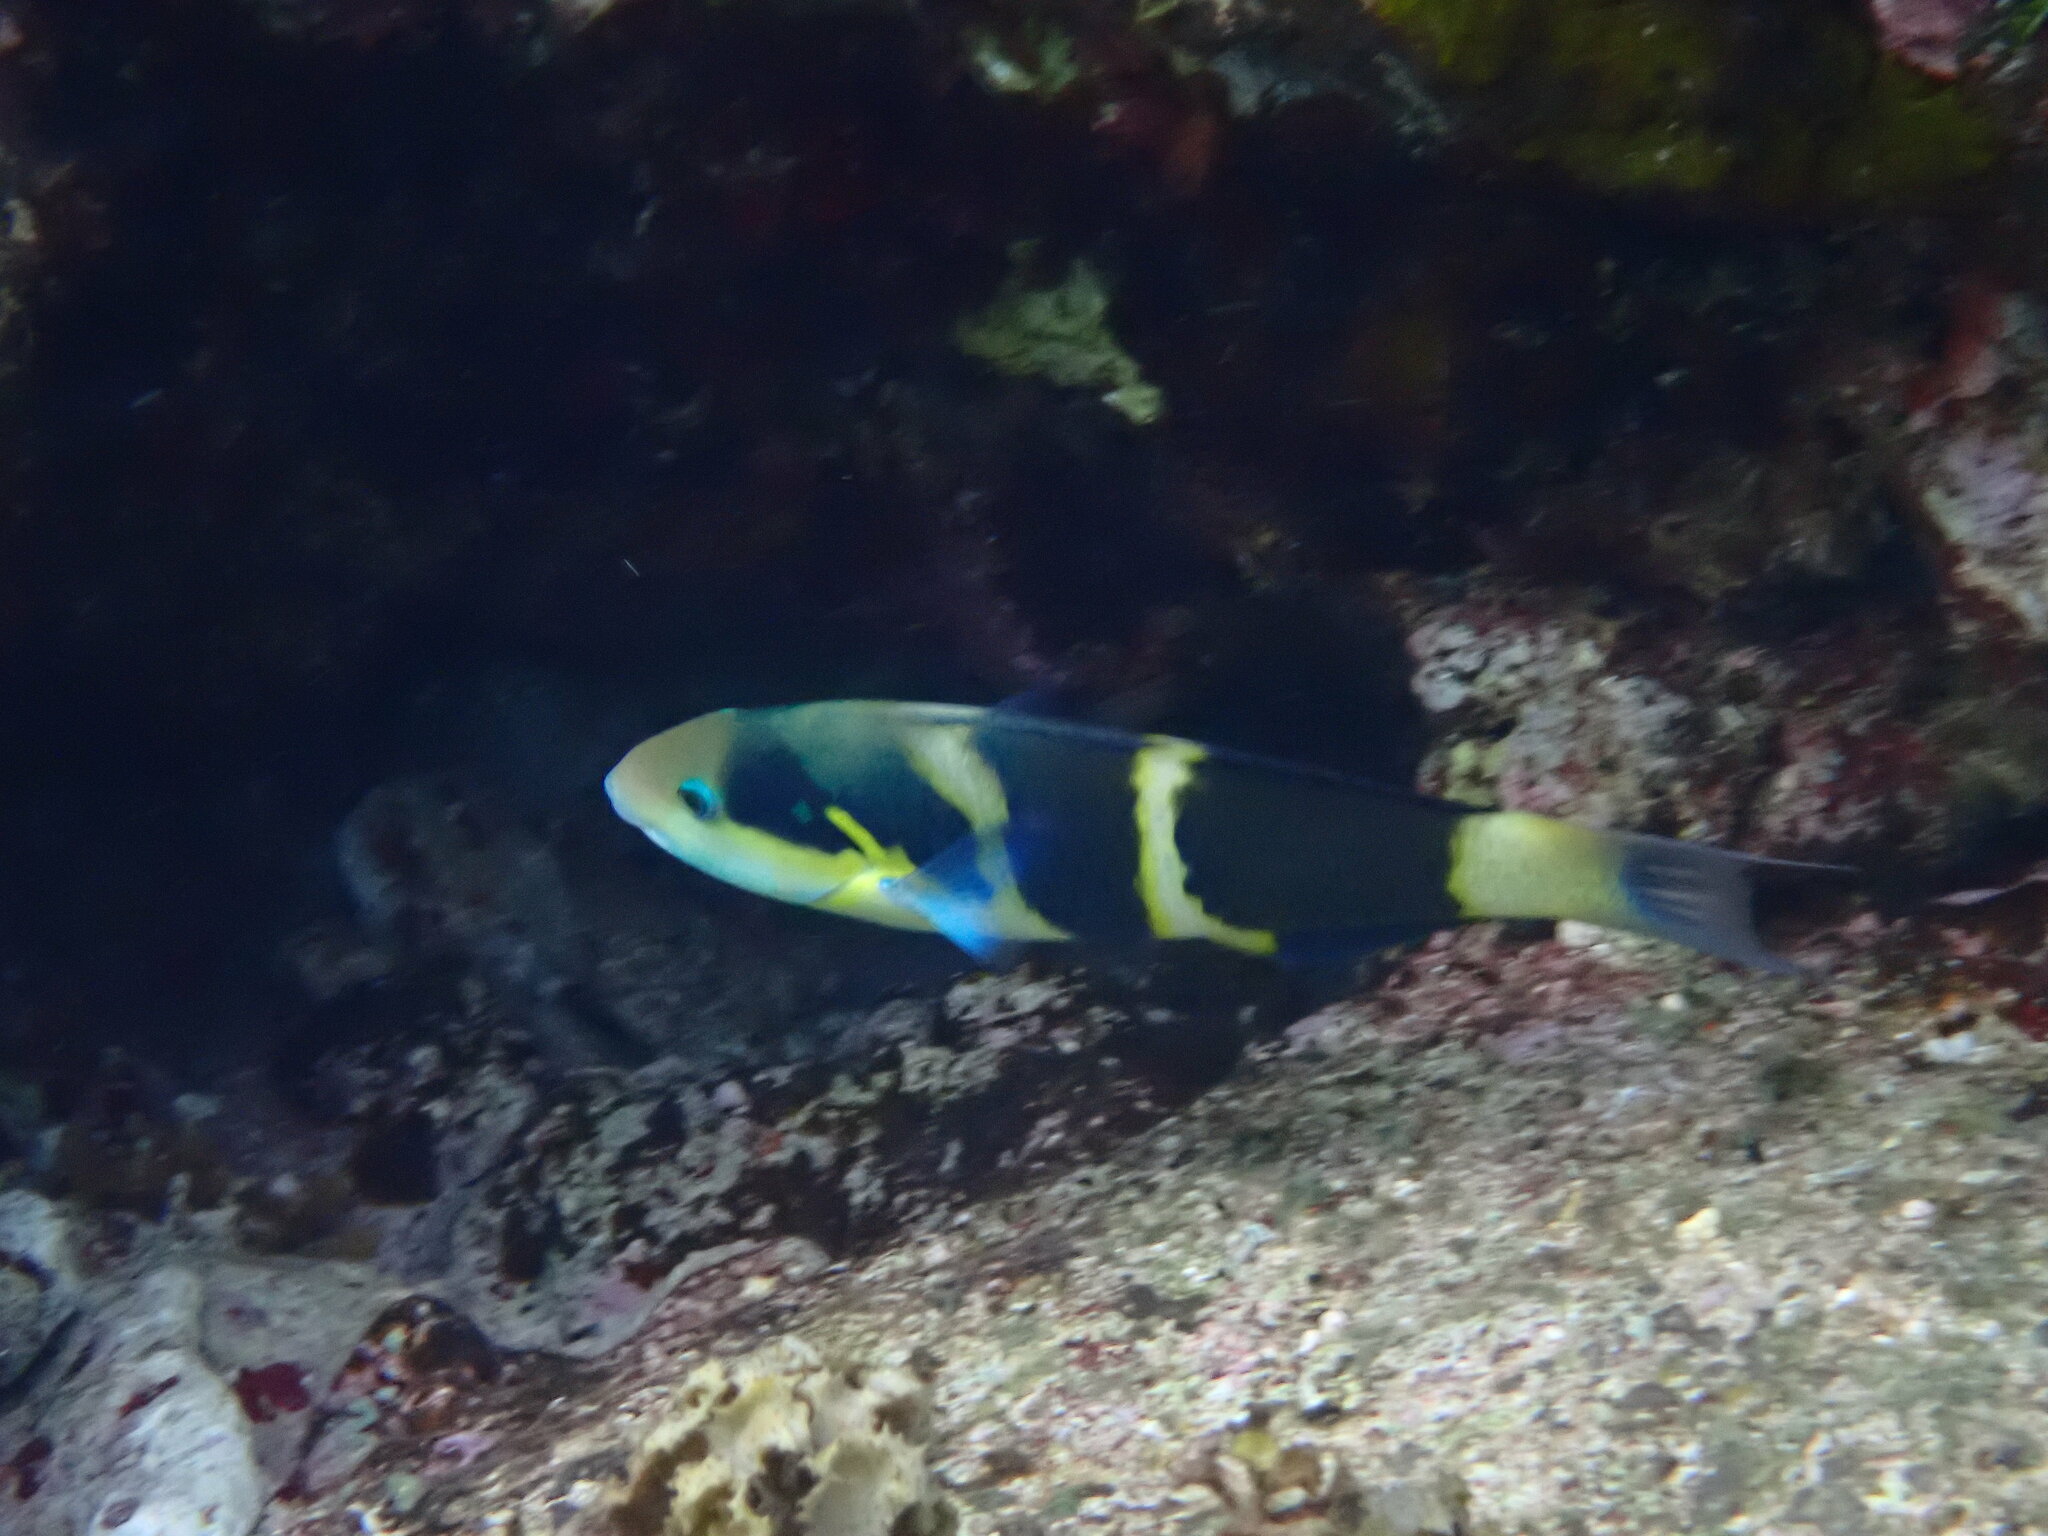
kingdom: Animalia
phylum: Chordata
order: Perciformes
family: Labridae
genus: Thalassoma
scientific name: Thalassoma nigrofasciatum
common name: Black-barred wrasse
